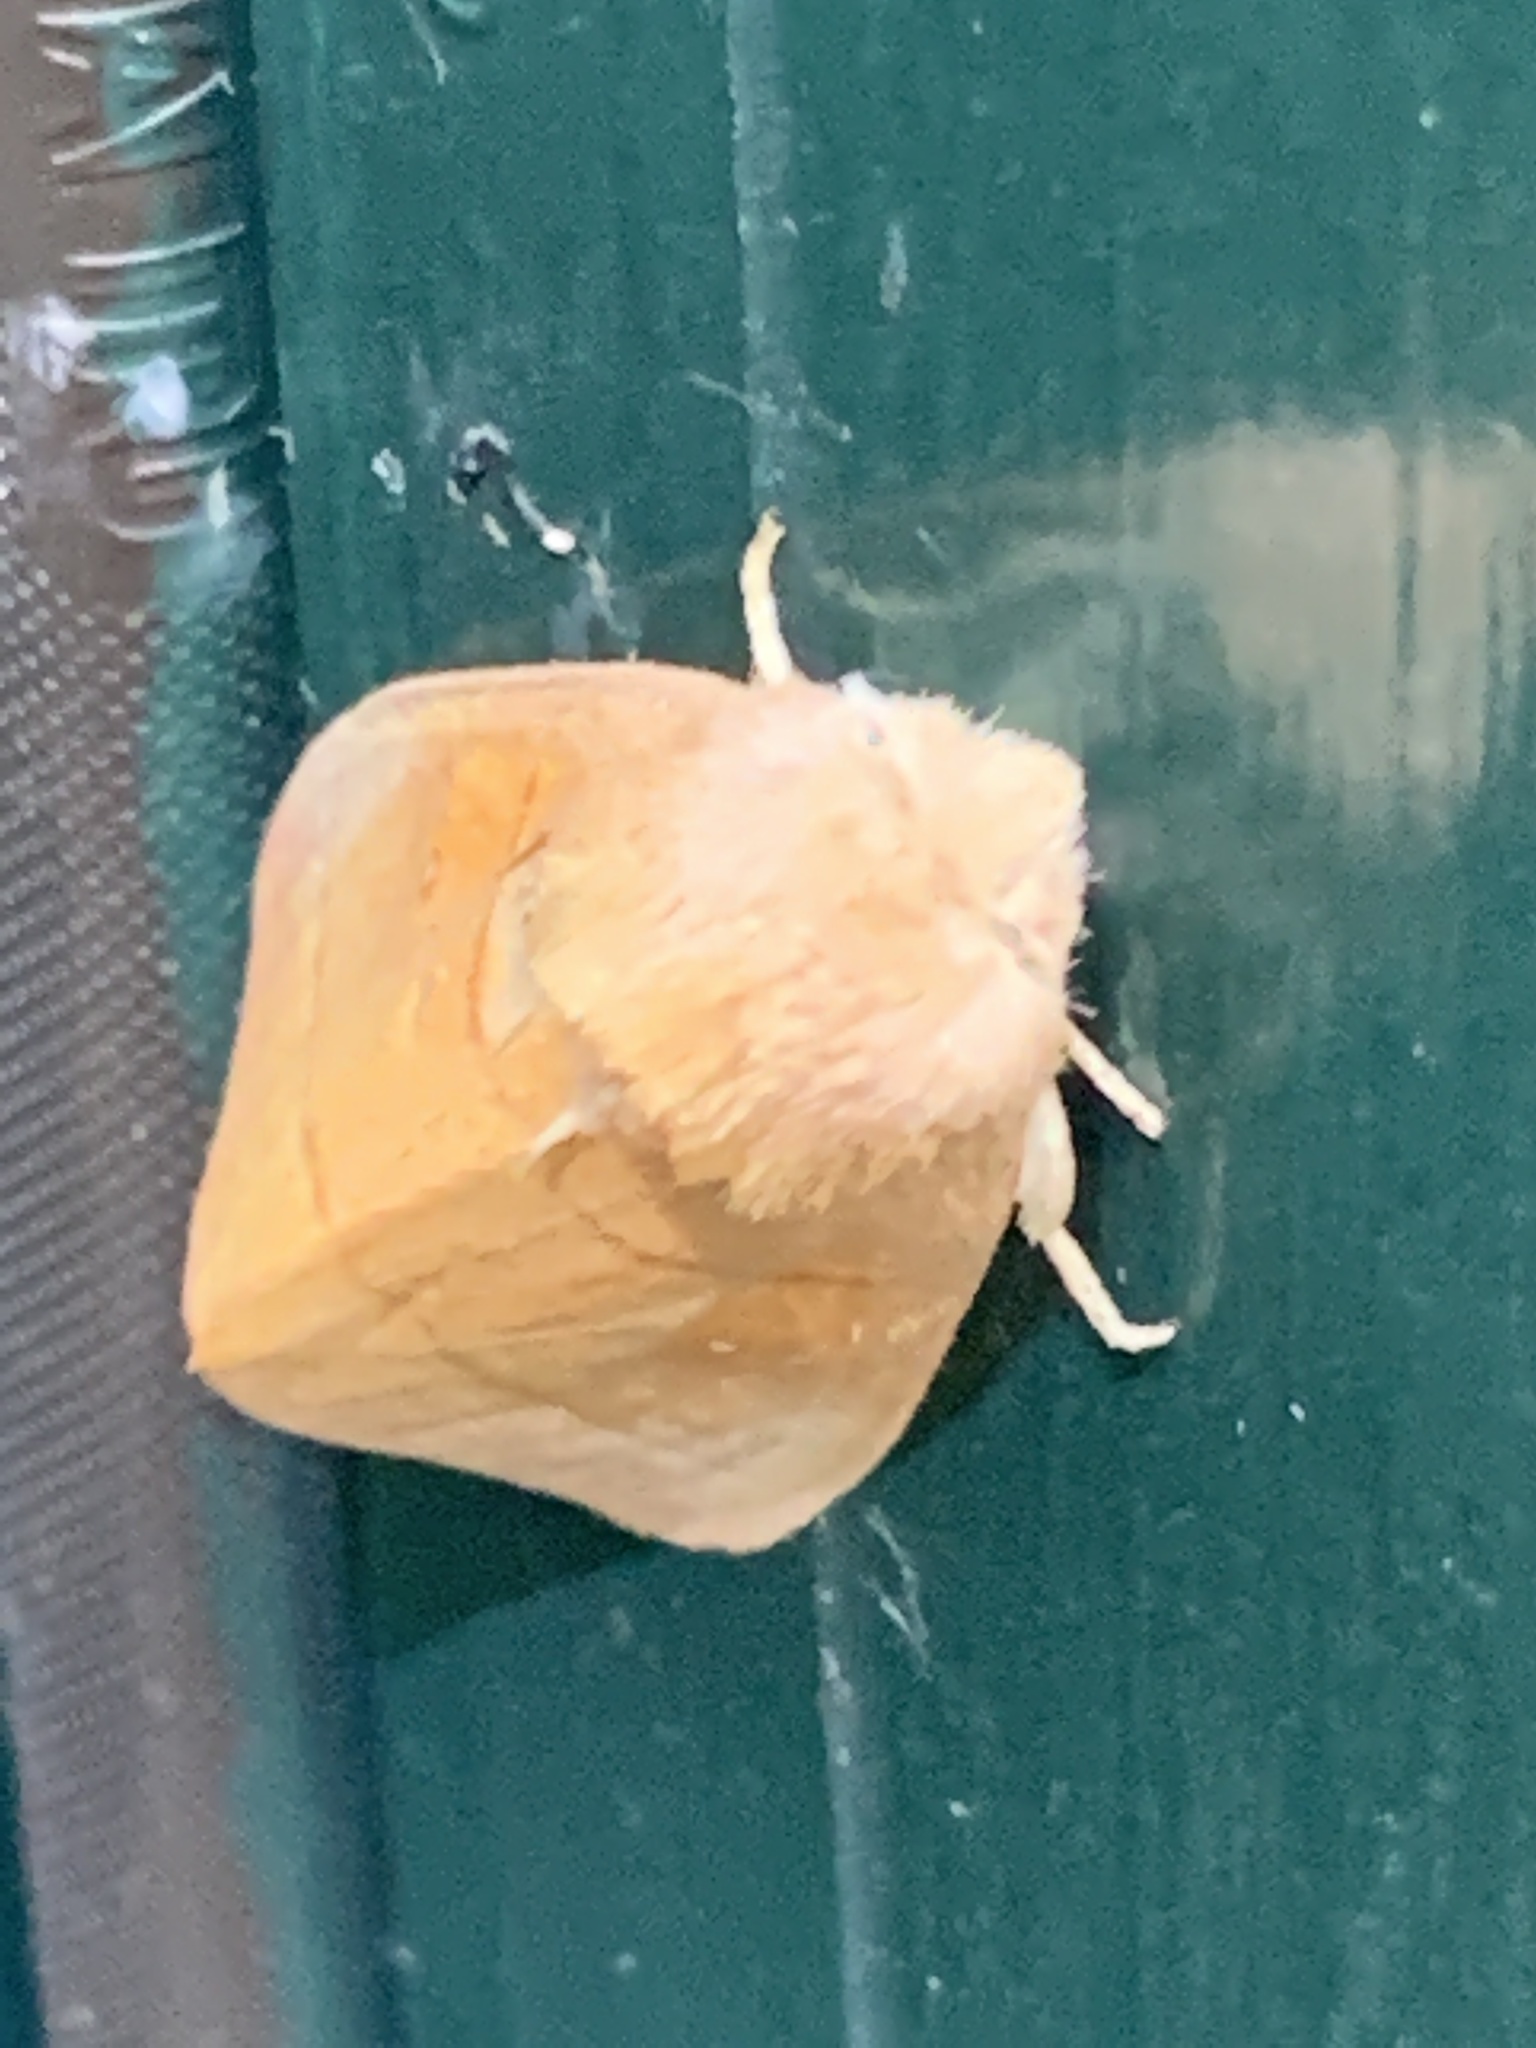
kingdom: Animalia
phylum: Arthropoda
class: Insecta
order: Lepidoptera
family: Notodontidae
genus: Nadata
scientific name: Nadata gibbosa
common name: White-dotted prominent
